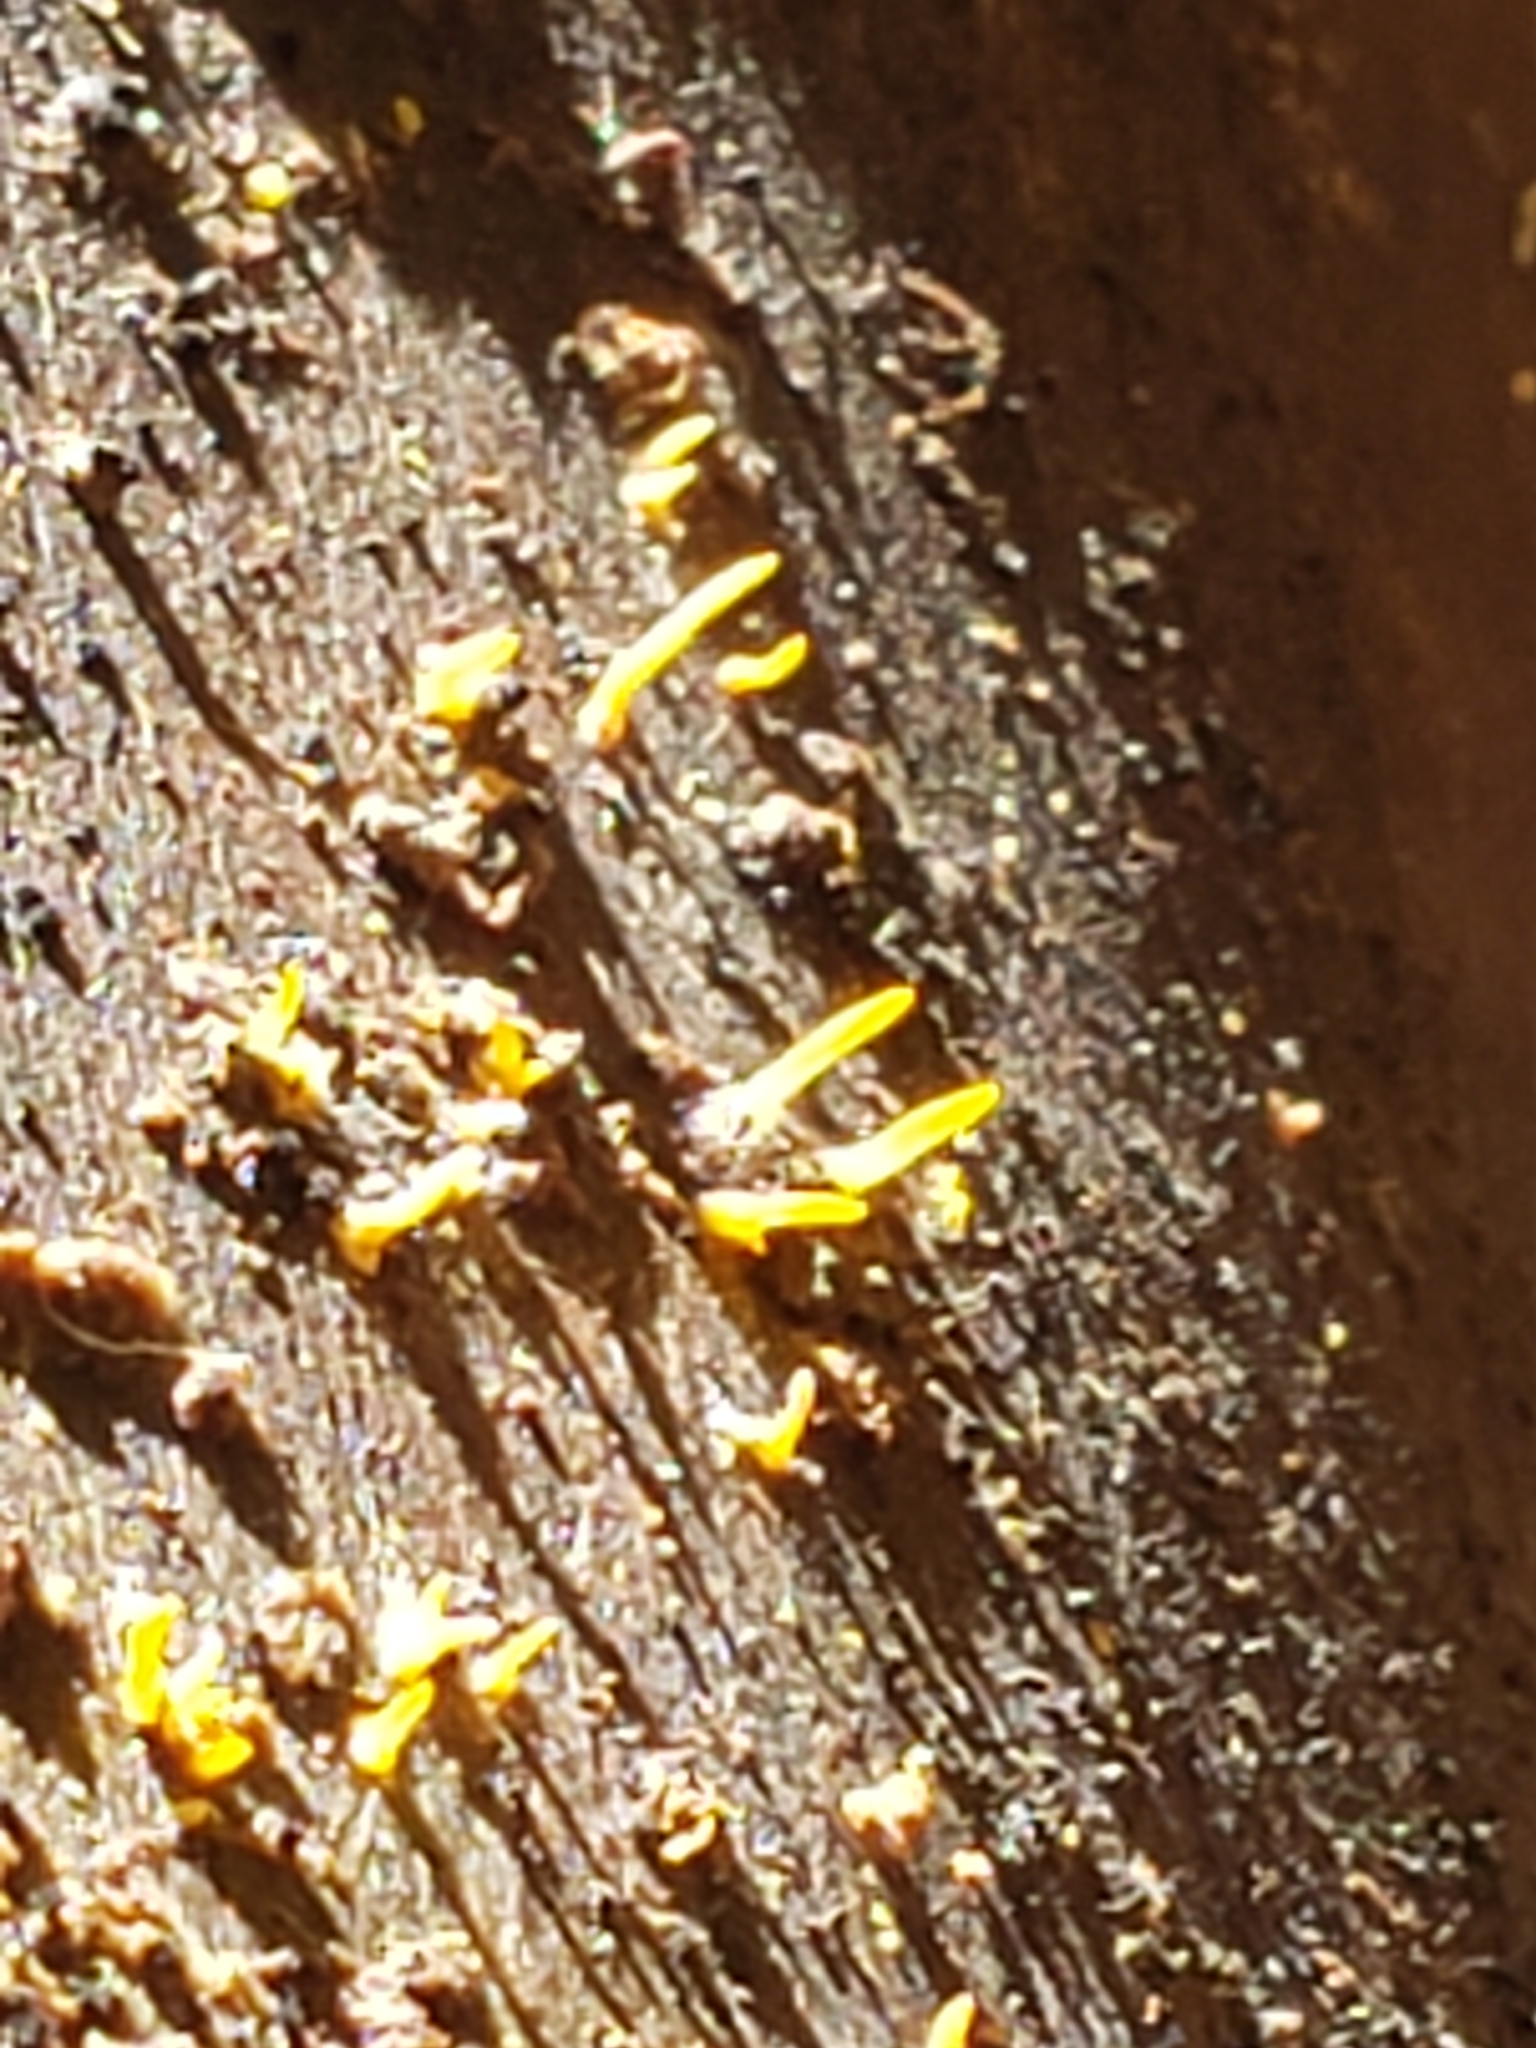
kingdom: Fungi
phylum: Basidiomycota
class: Dacrymycetes
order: Dacrymycetales
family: Dacrymycetaceae
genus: Calocera
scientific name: Calocera cornea
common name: Small stagshorn
